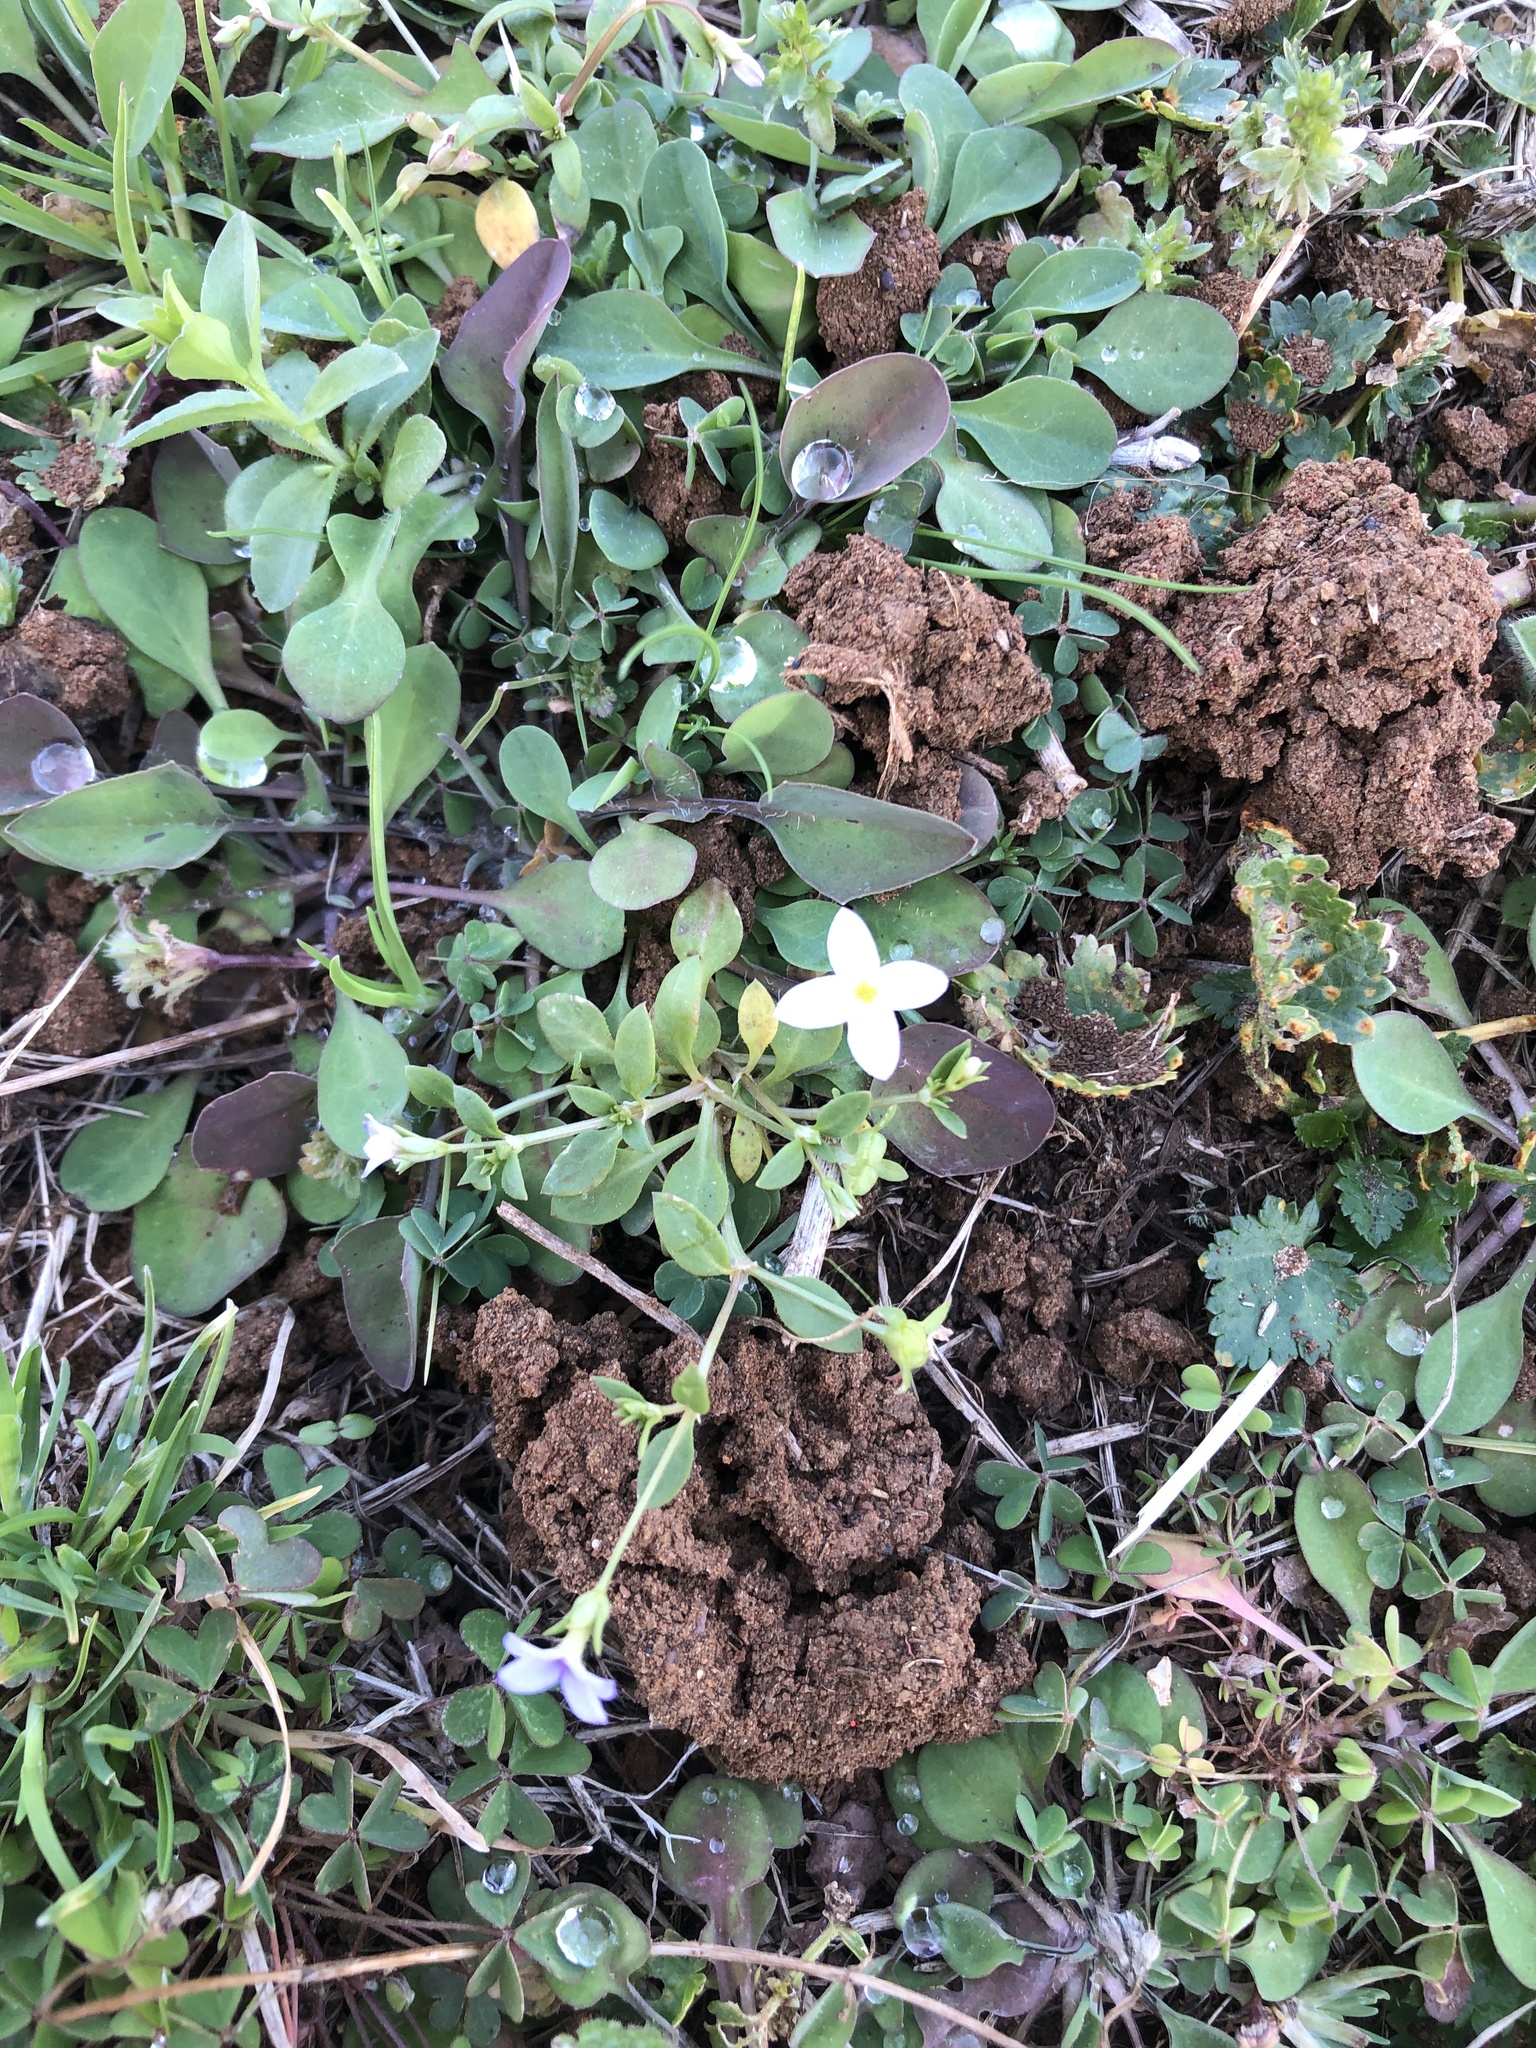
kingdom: Plantae
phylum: Tracheophyta
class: Magnoliopsida
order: Gentianales
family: Rubiaceae
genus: Houstonia
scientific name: Houstonia rosea
